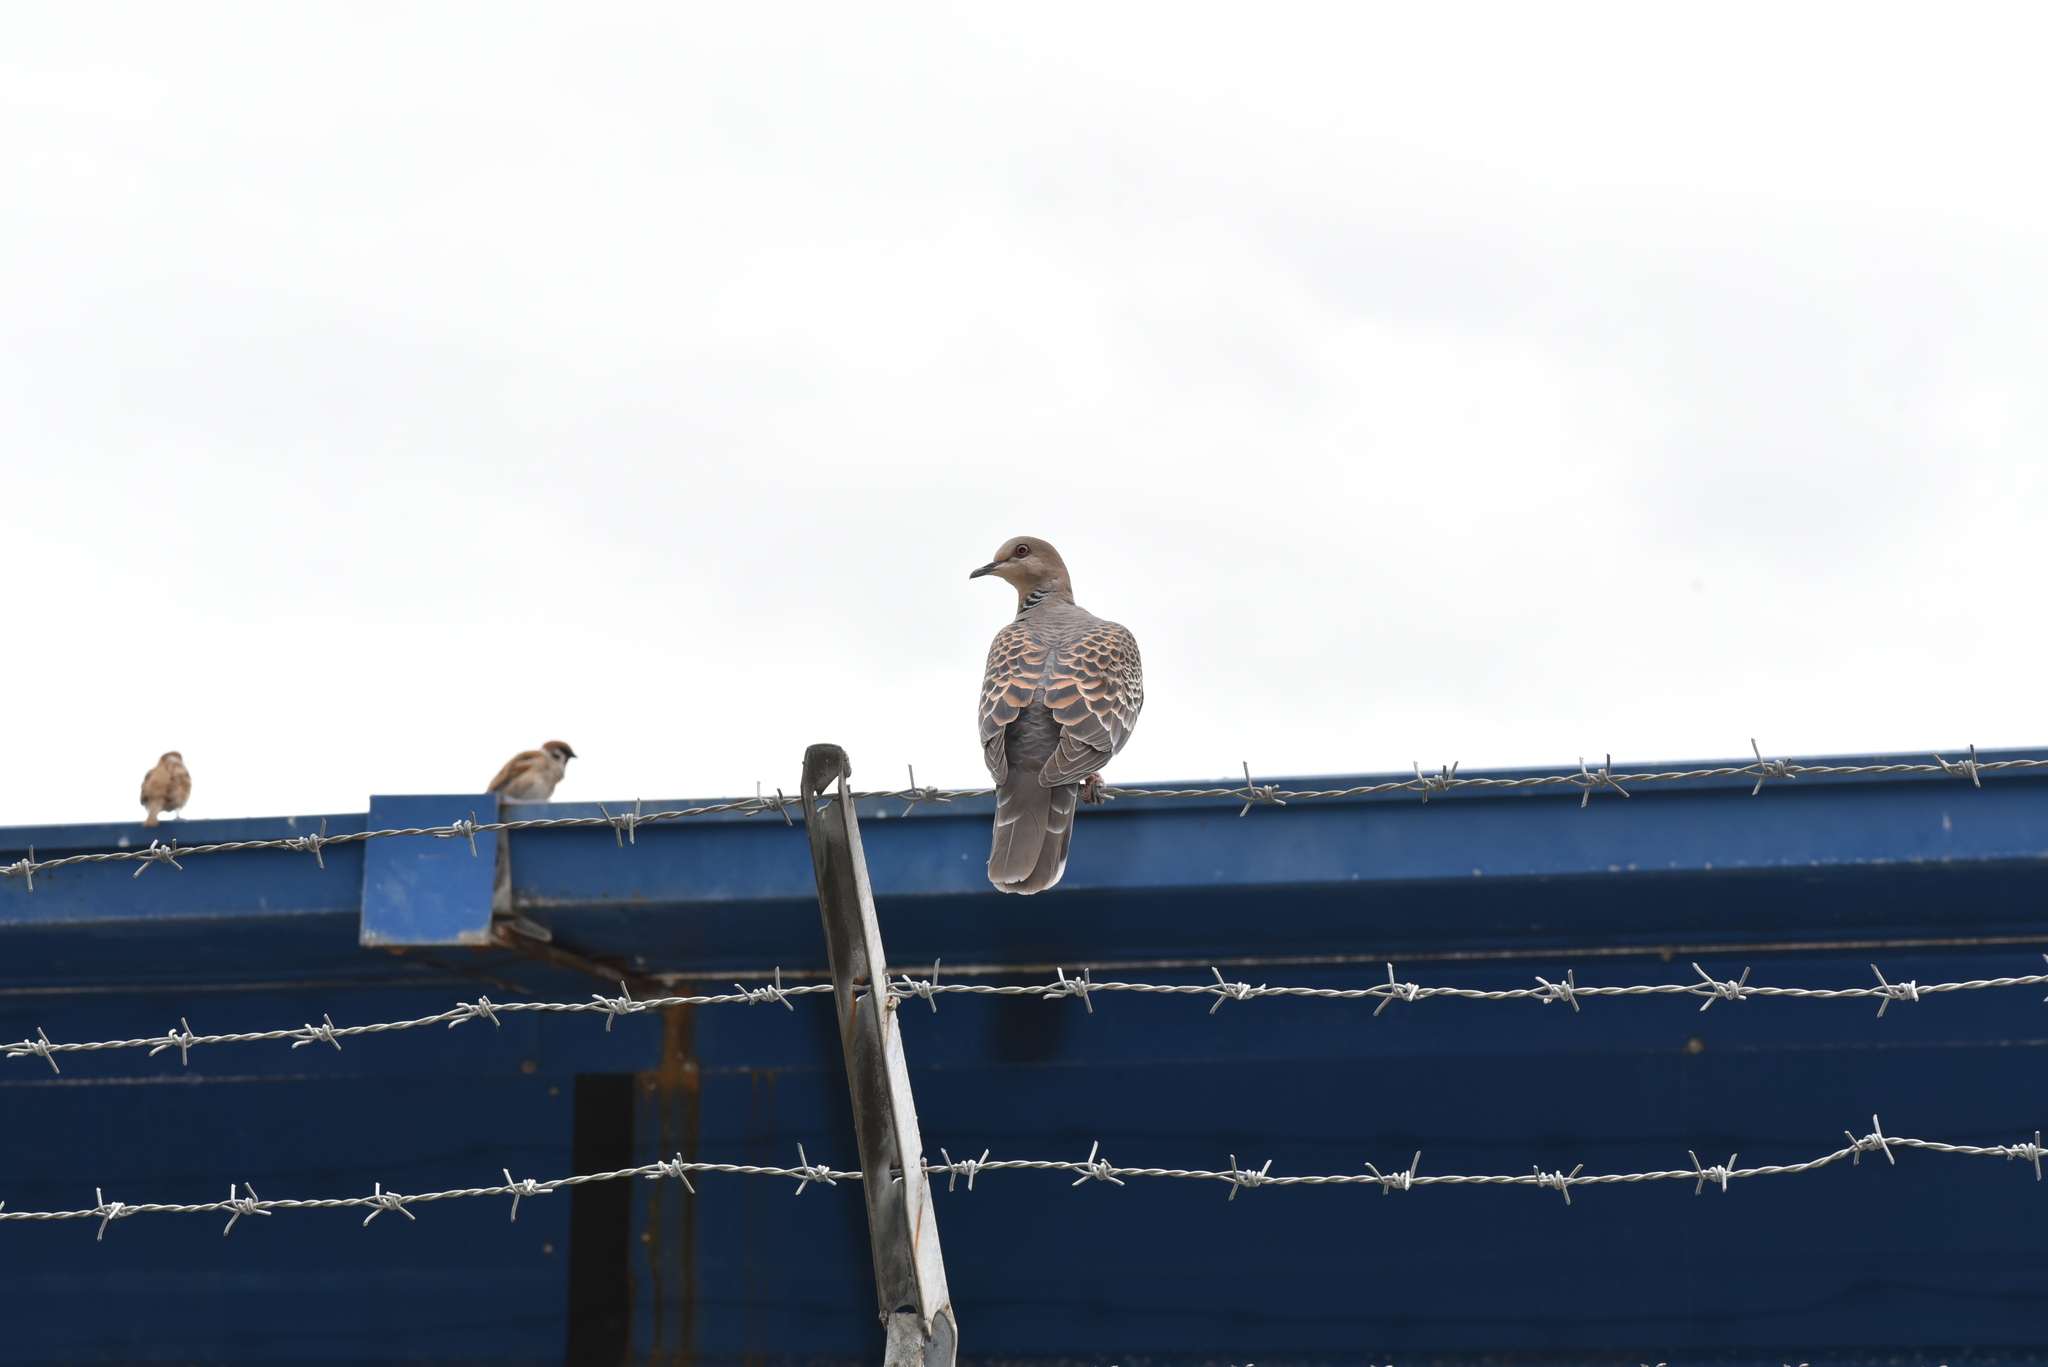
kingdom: Animalia
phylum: Chordata
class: Aves
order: Columbiformes
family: Columbidae
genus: Streptopelia
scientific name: Streptopelia orientalis
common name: Oriental turtle dove
